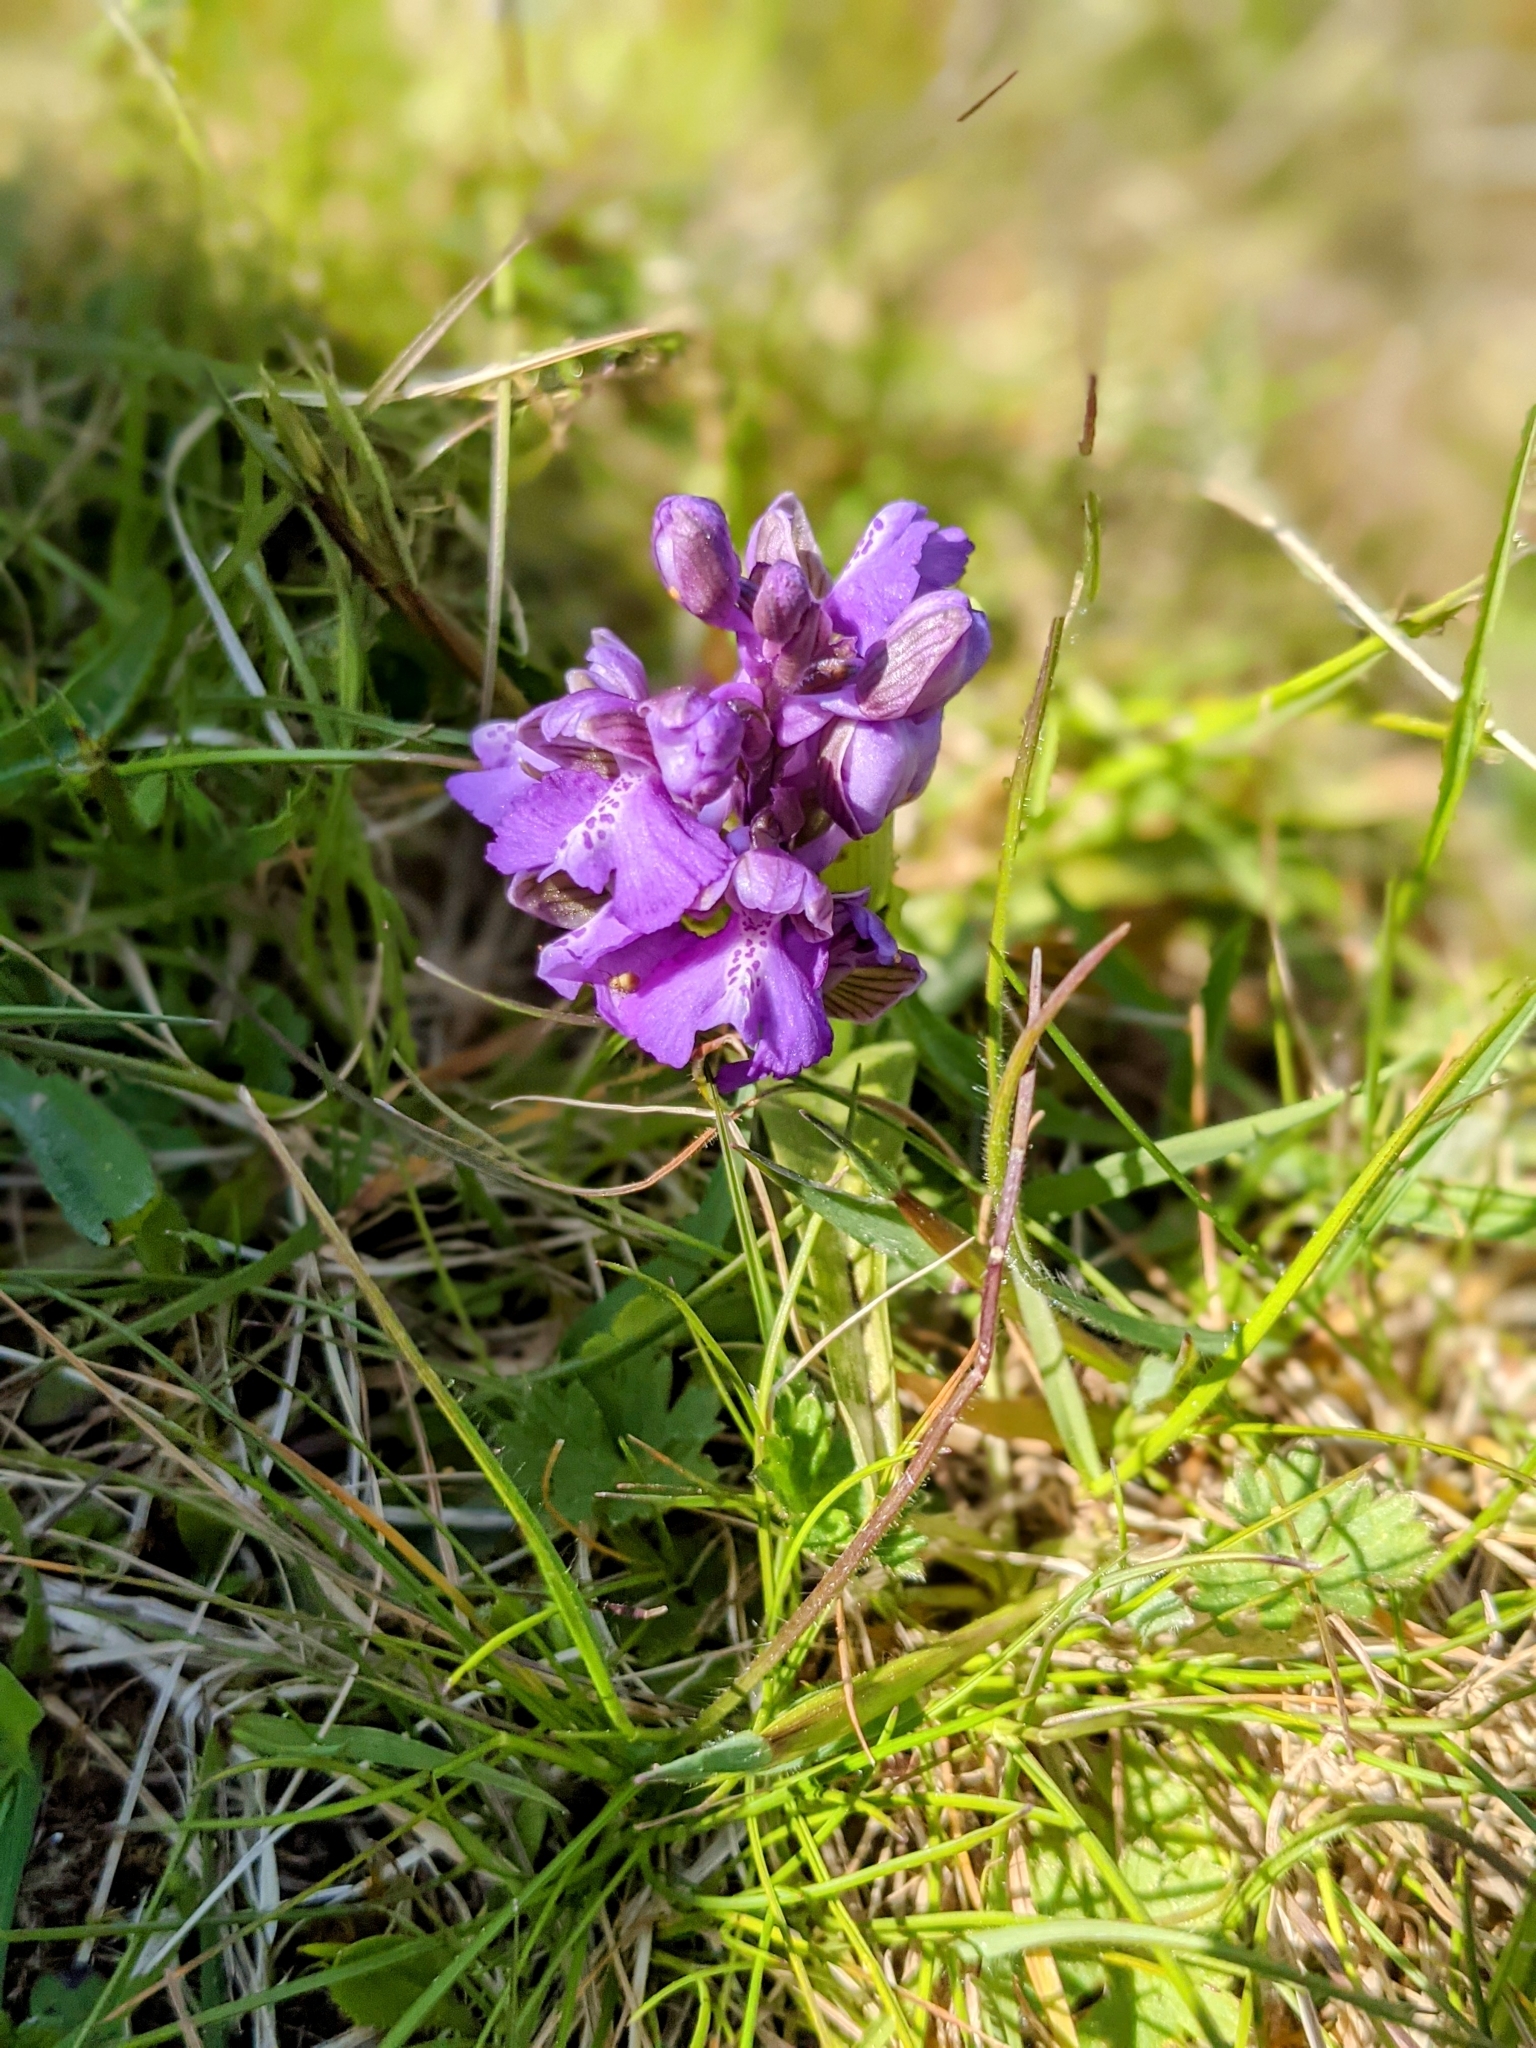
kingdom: Plantae
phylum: Tracheophyta
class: Liliopsida
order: Asparagales
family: Orchidaceae
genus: Anacamptis
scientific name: Anacamptis morio
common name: Green-winged orchid
